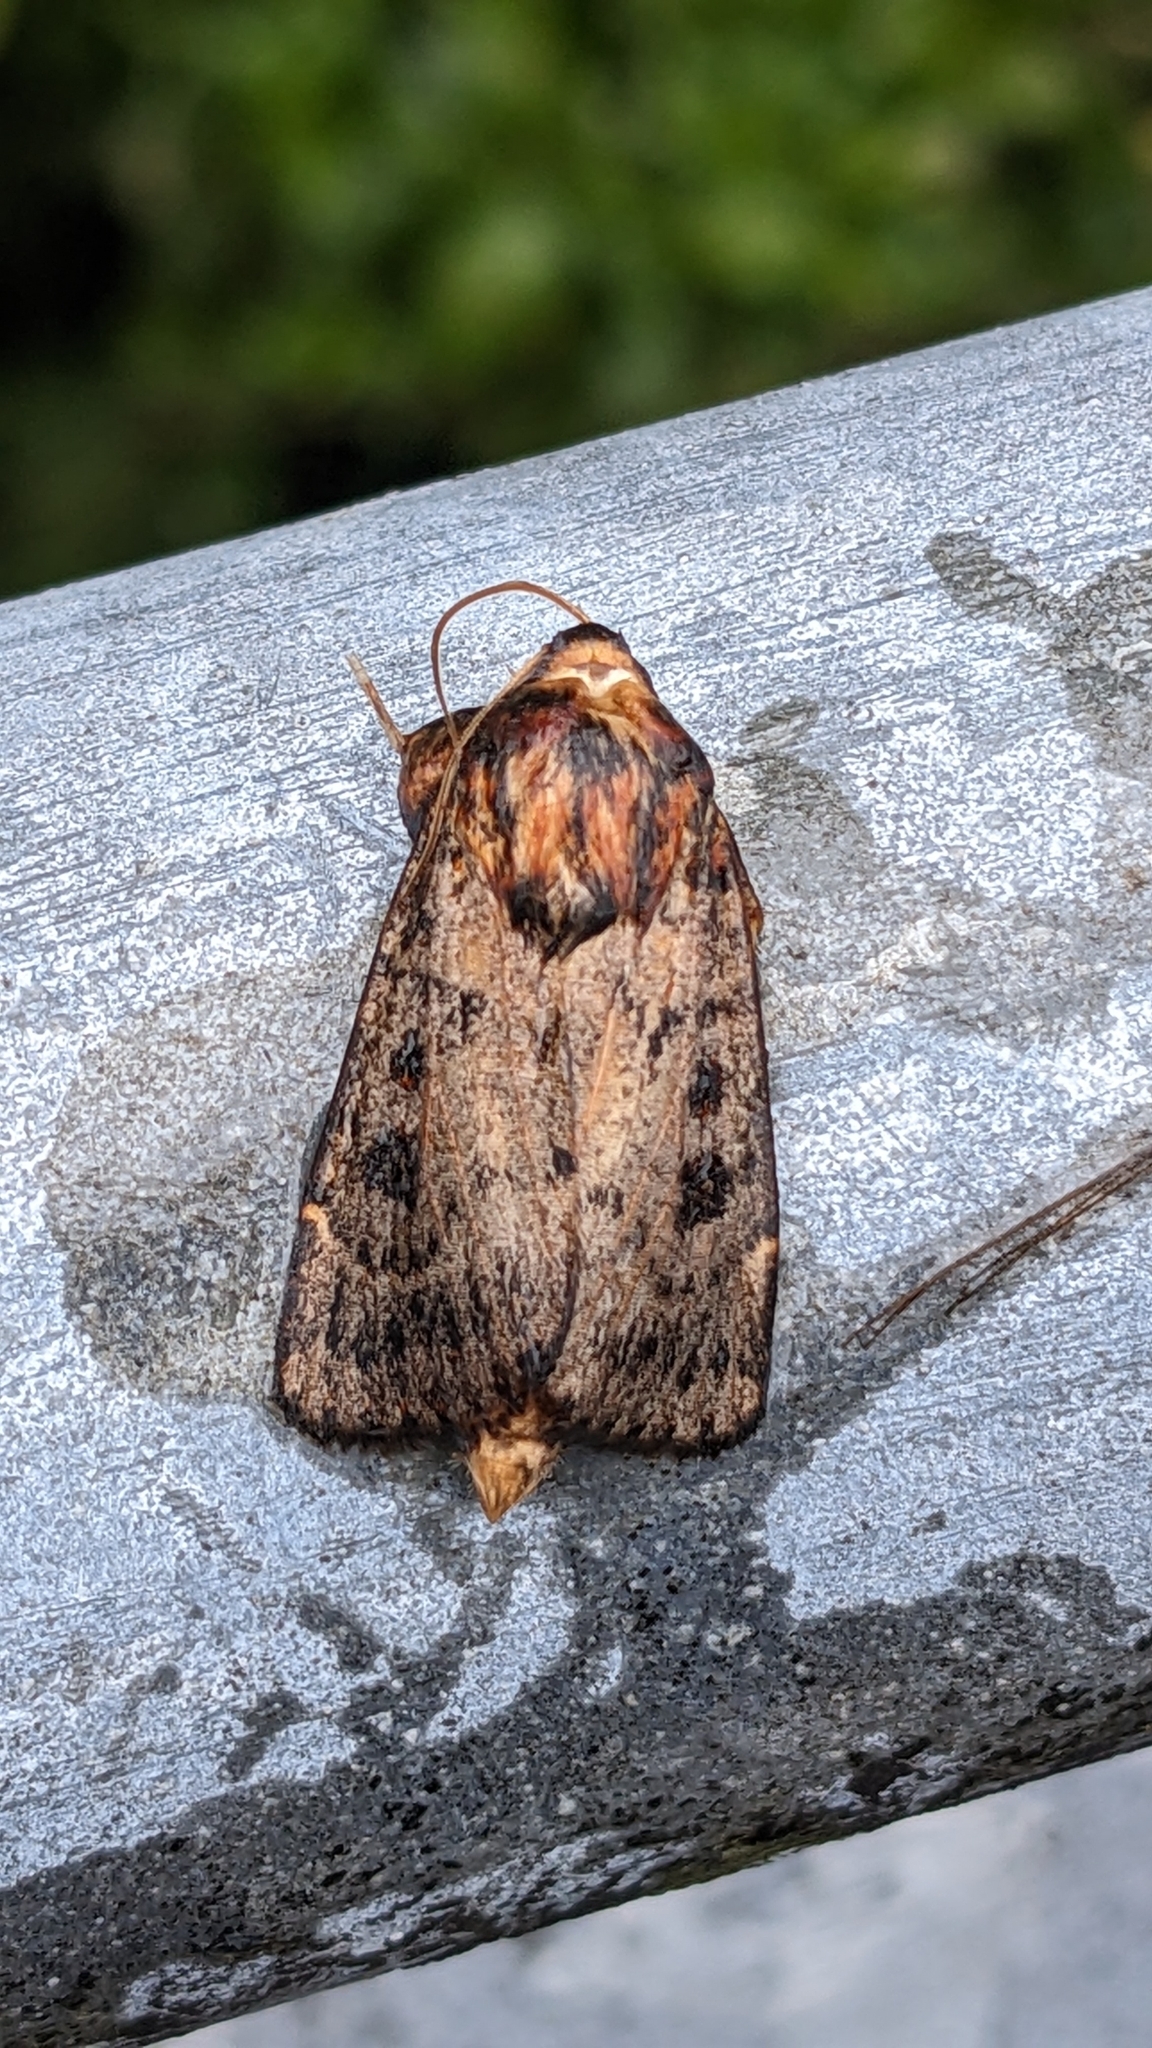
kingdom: Animalia
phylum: Arthropoda
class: Insecta
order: Lepidoptera
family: Noctuidae
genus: Proteuxoa
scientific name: Proteuxoa sanguinipuncta
